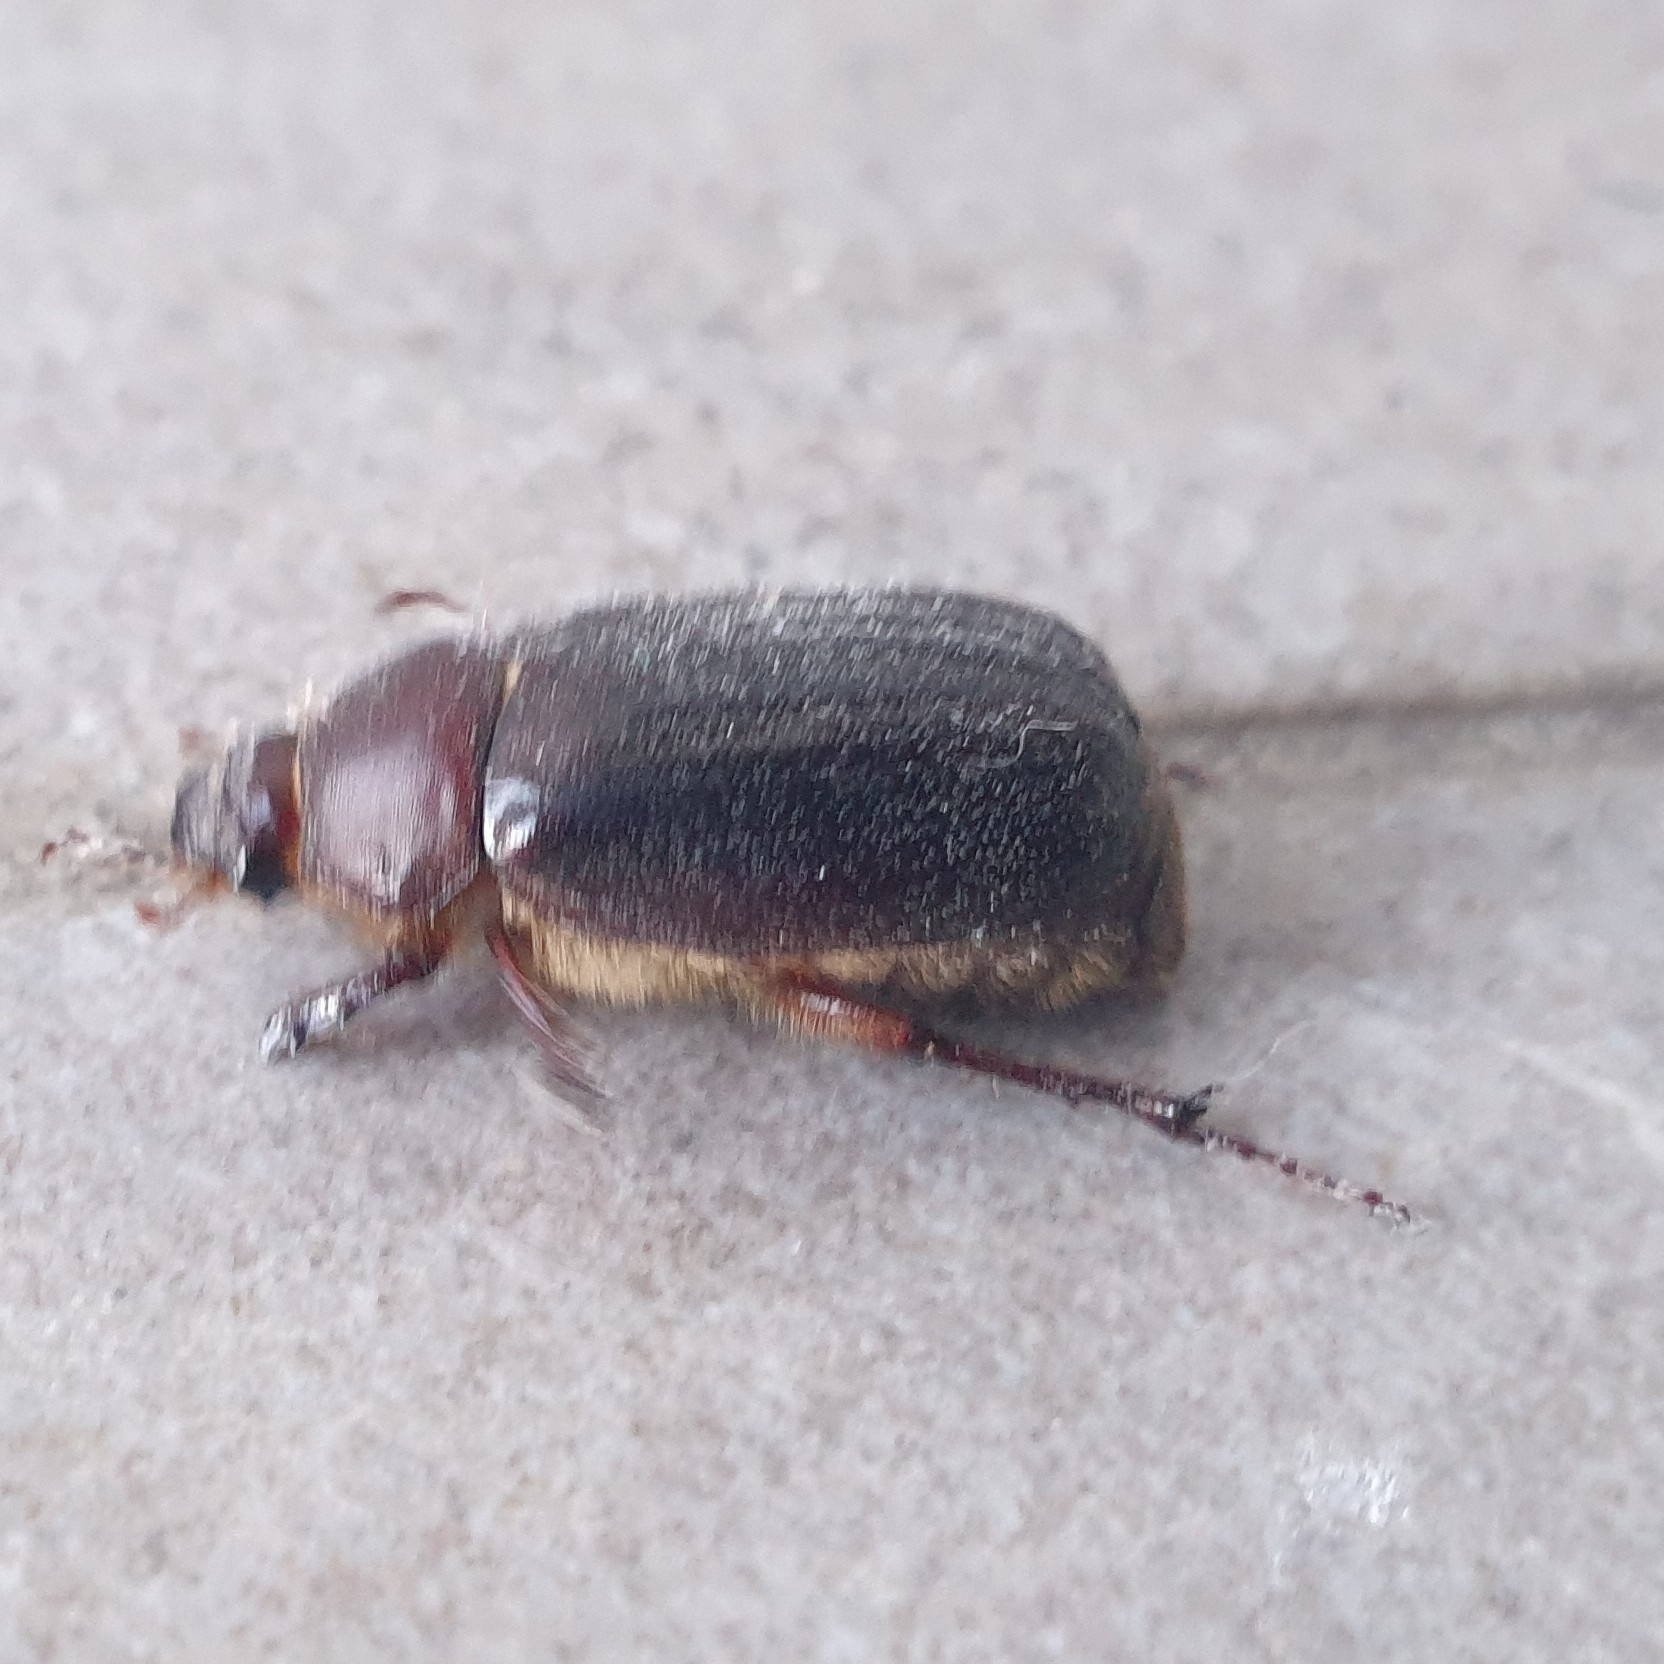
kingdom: Animalia
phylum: Arthropoda
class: Insecta
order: Coleoptera
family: Scarabaeidae
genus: Aplidia
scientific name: Aplidia transversa
